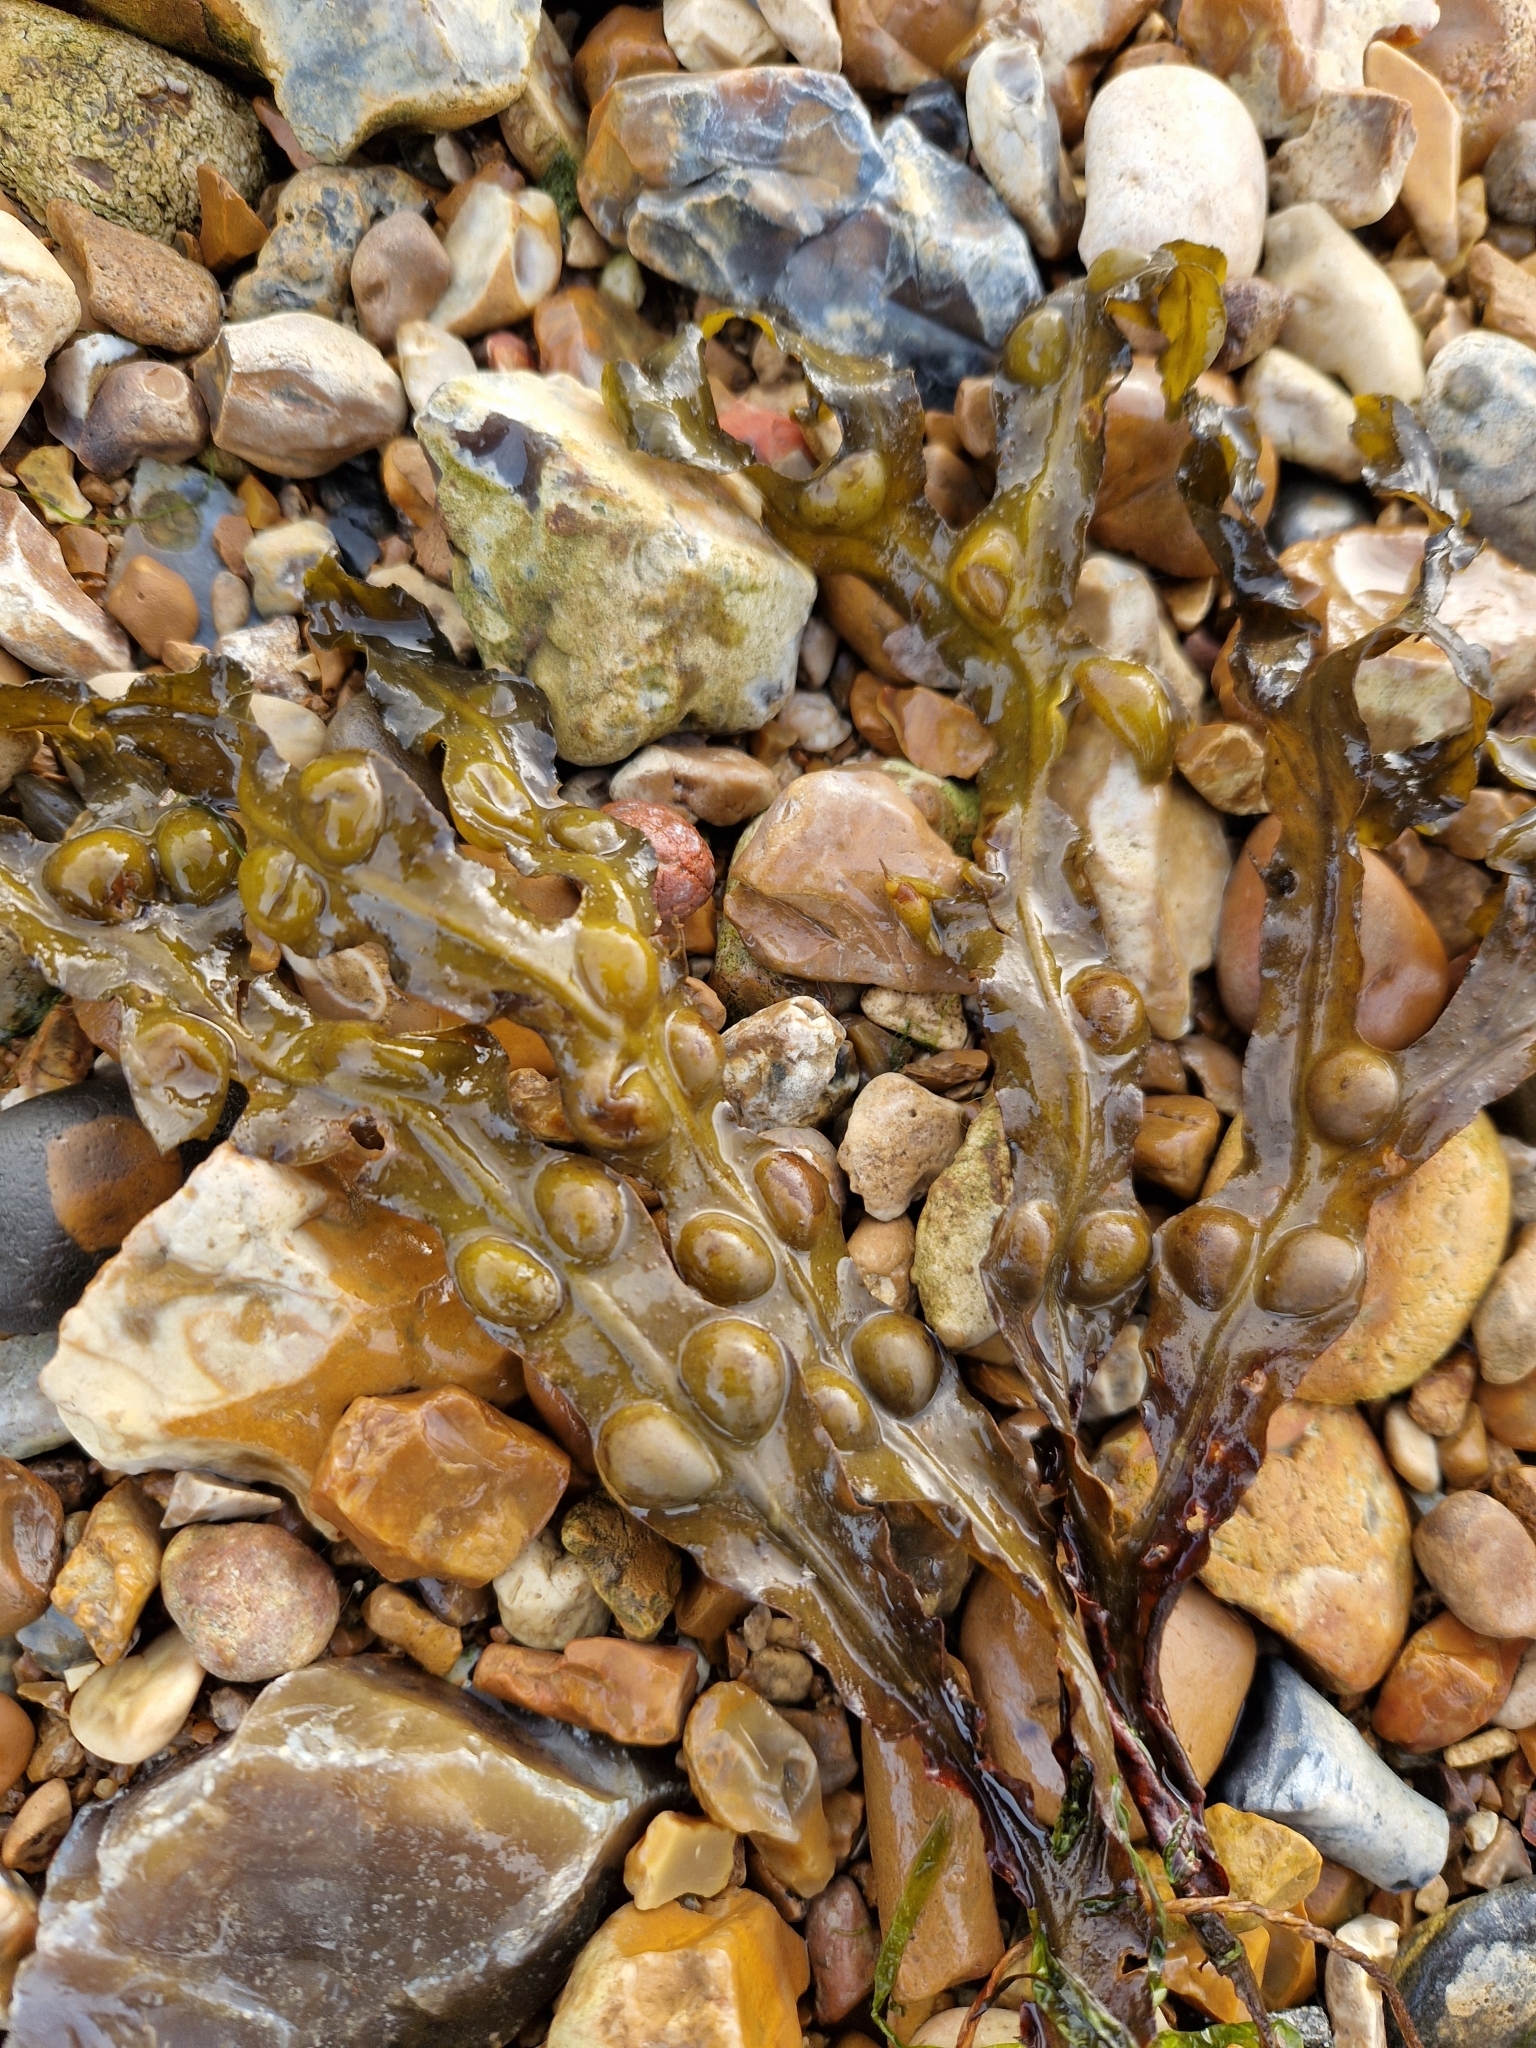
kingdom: Chromista
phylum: Ochrophyta
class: Phaeophyceae
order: Fucales
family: Fucaceae
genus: Fucus
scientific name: Fucus vesiculosus
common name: Bladder wrack
